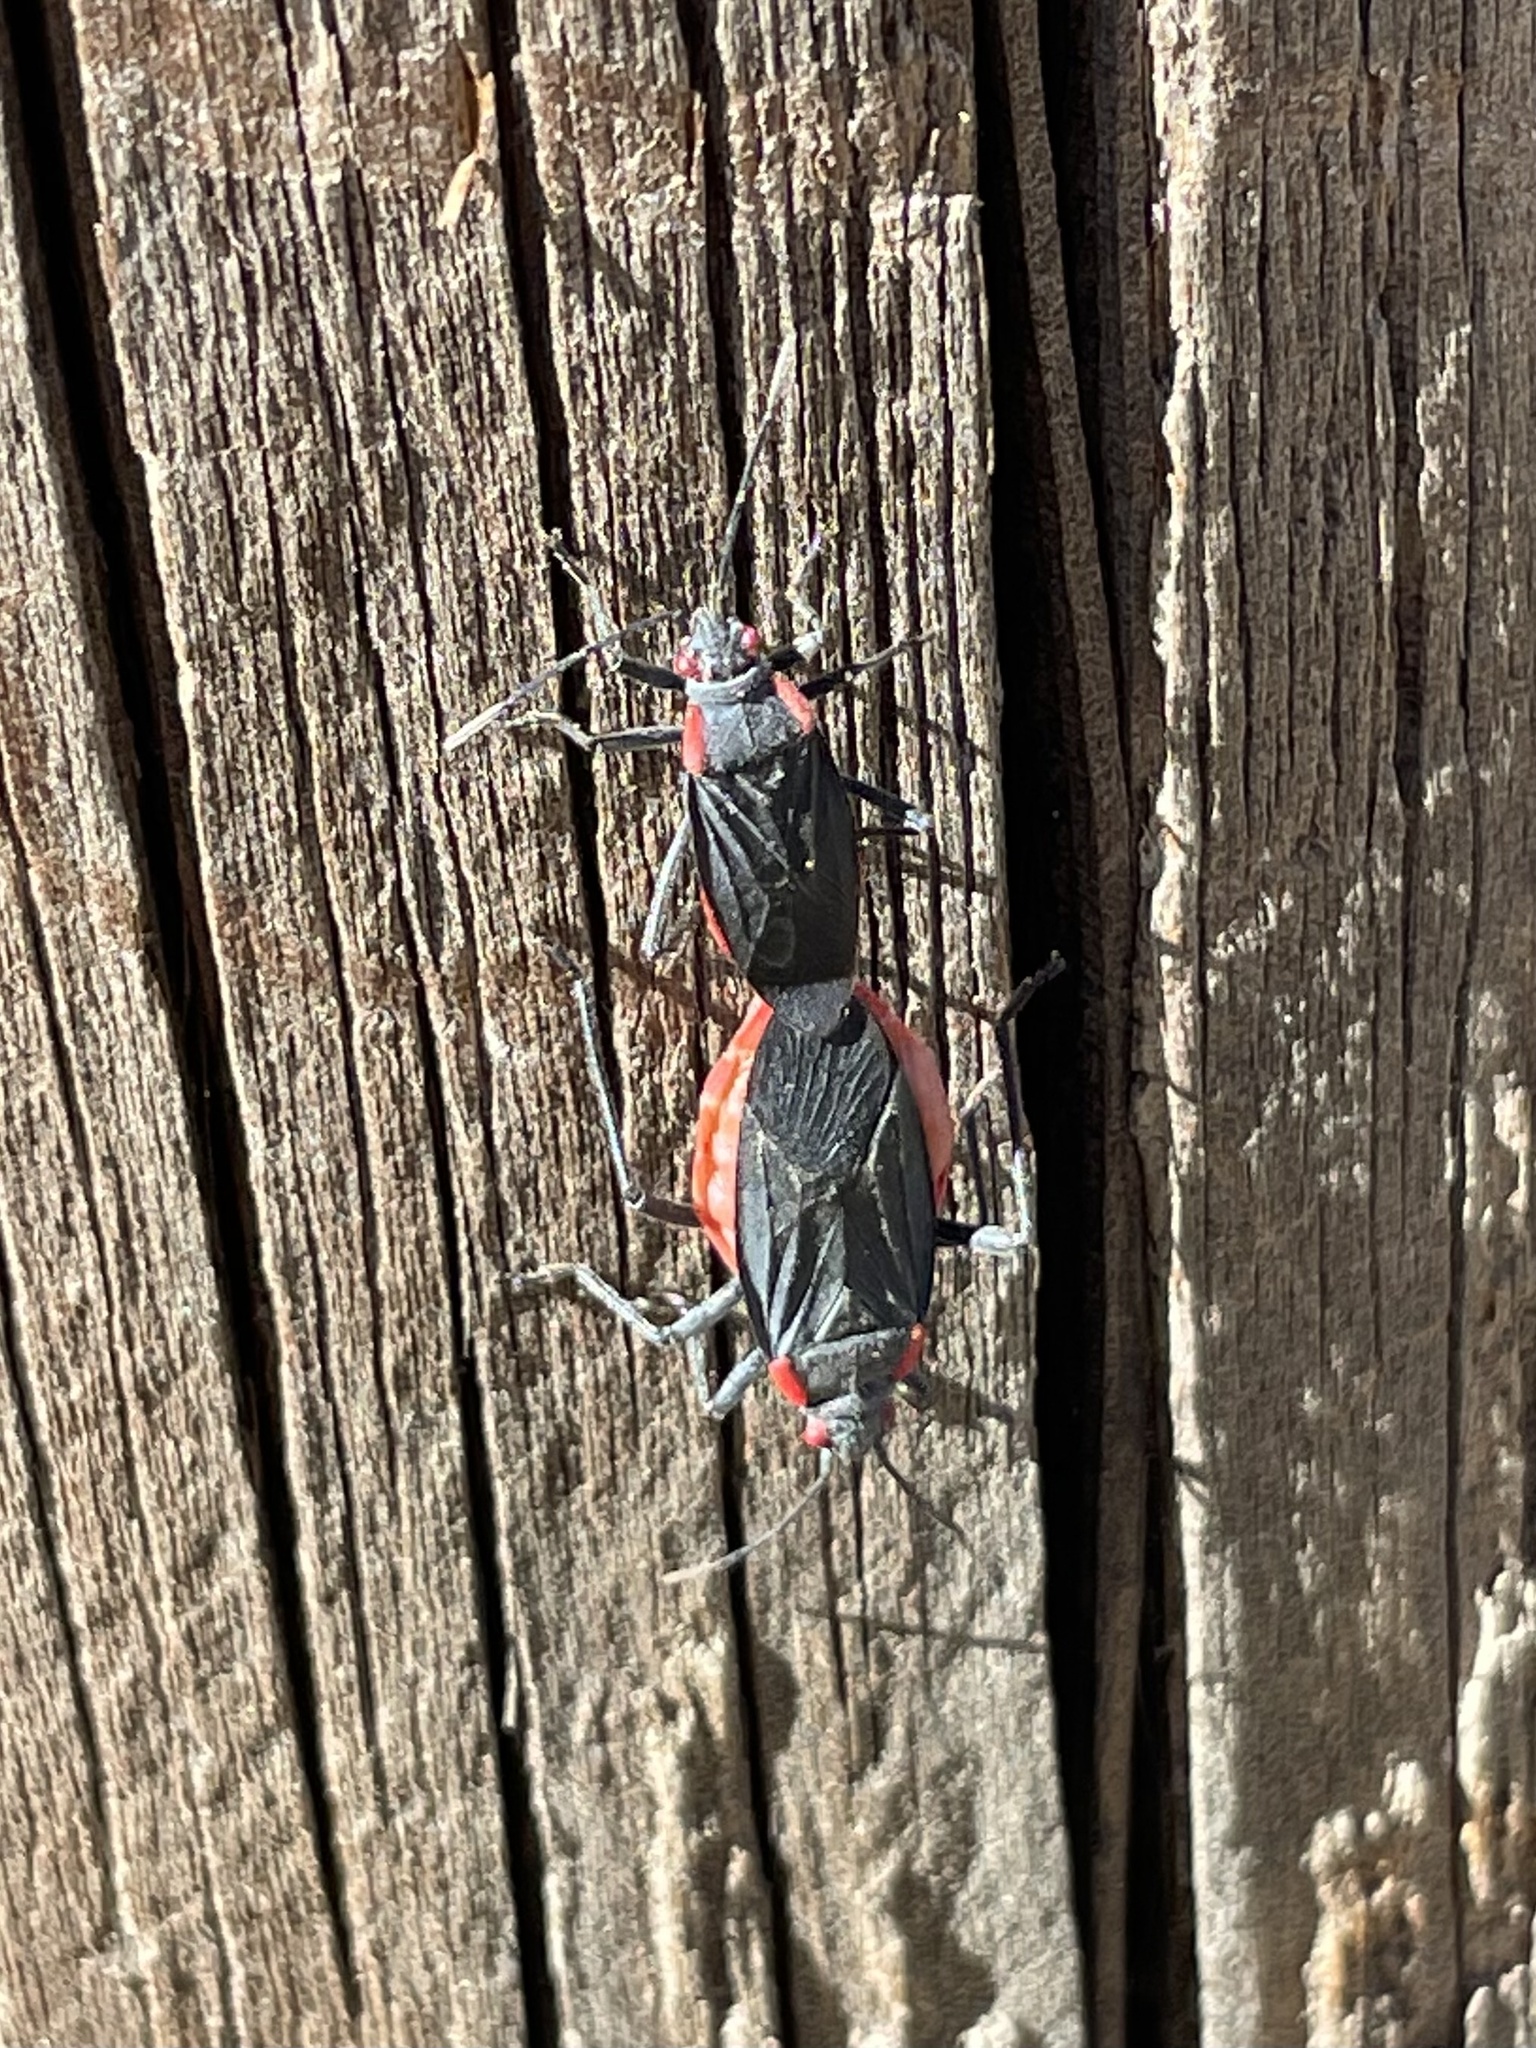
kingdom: Animalia
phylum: Arthropoda
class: Insecta
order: Hemiptera
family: Rhopalidae
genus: Jadera
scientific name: Jadera haematoloma
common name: Red-shouldered bug
